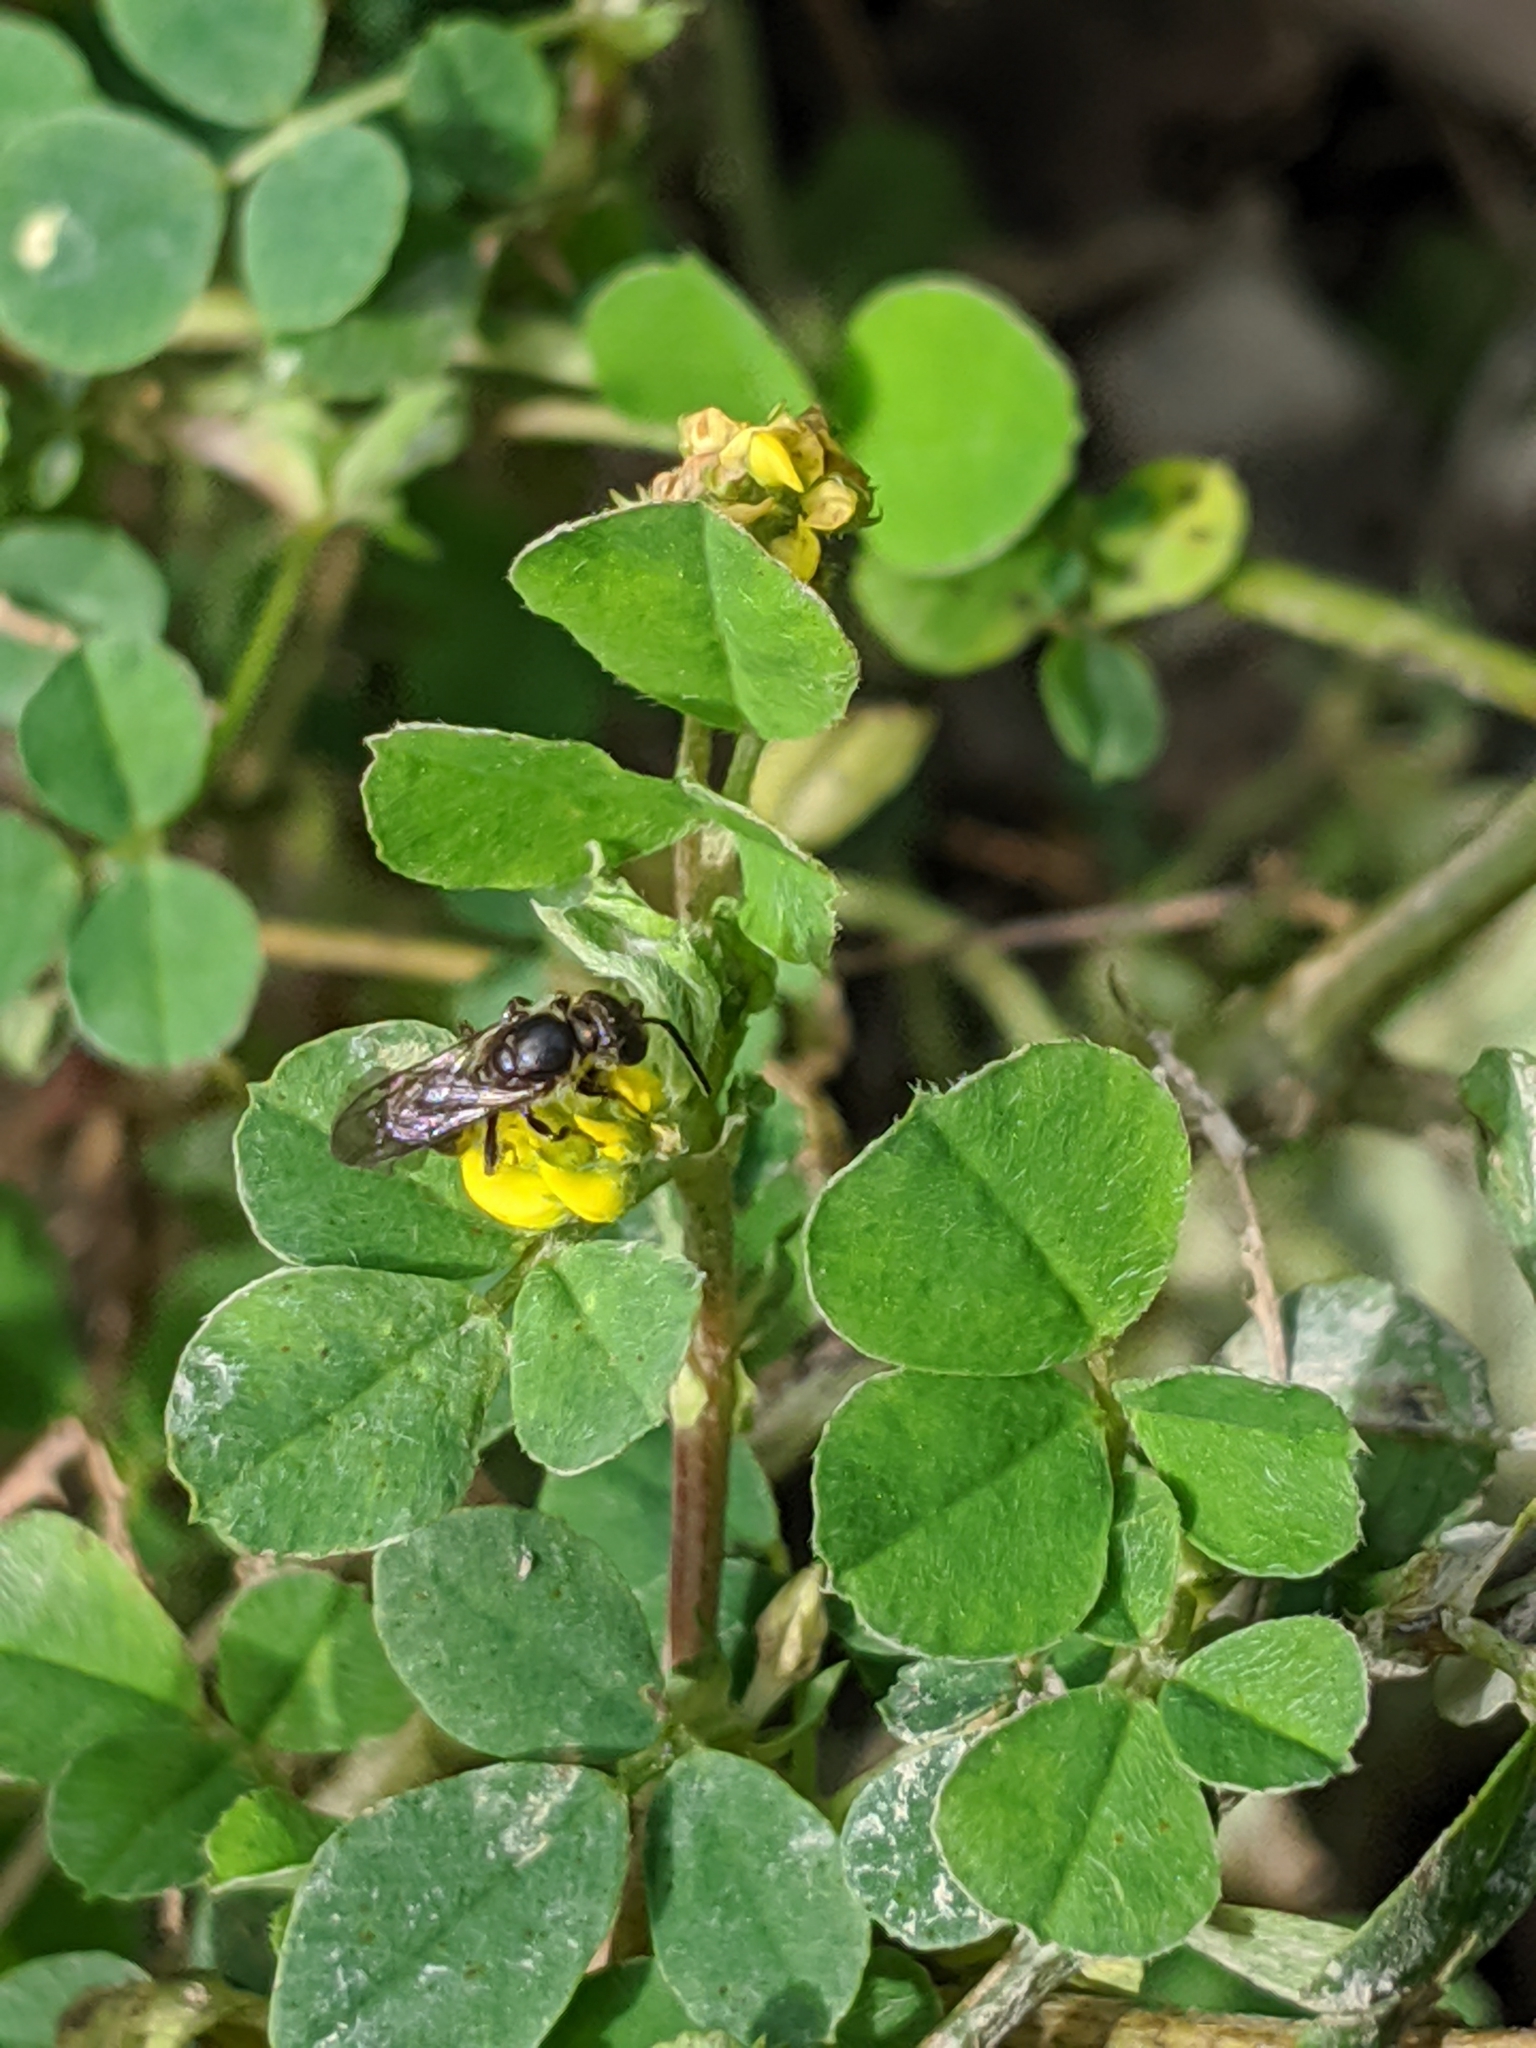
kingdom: Plantae
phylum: Tracheophyta
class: Magnoliopsida
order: Fabales
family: Fabaceae
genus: Medicago
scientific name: Medicago lupulina
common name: Black medick
